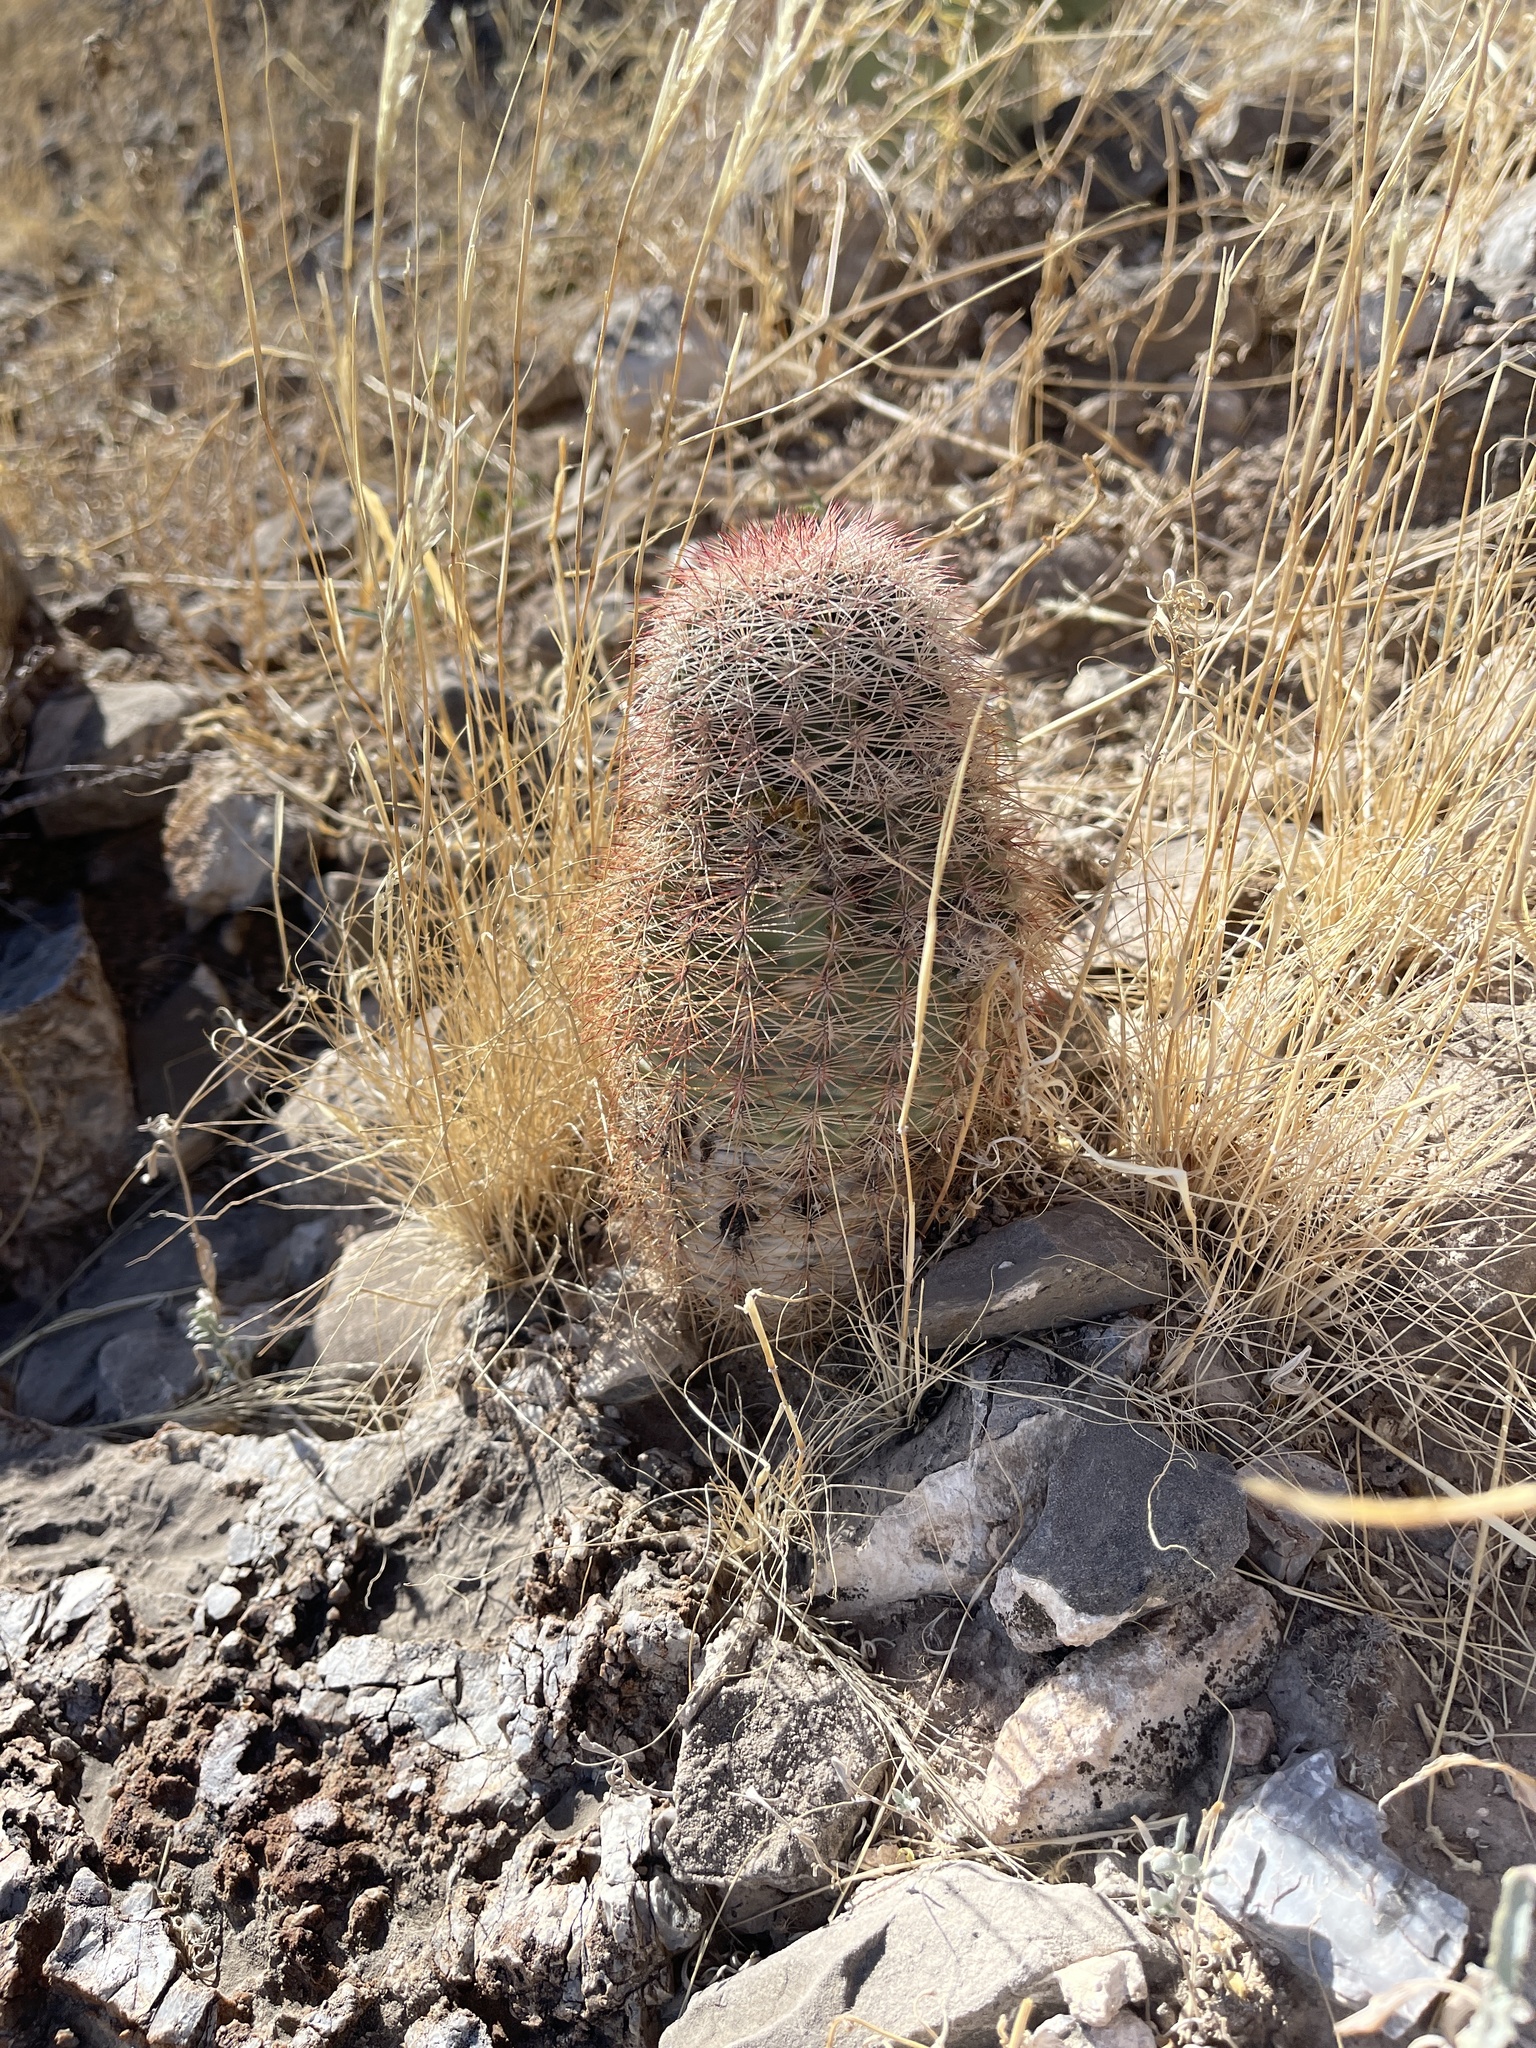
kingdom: Plantae
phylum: Tracheophyta
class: Magnoliopsida
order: Caryophyllales
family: Cactaceae
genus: Echinocereus
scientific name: Echinocereus dasyacanthus
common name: Spiny hedgehog cactus
